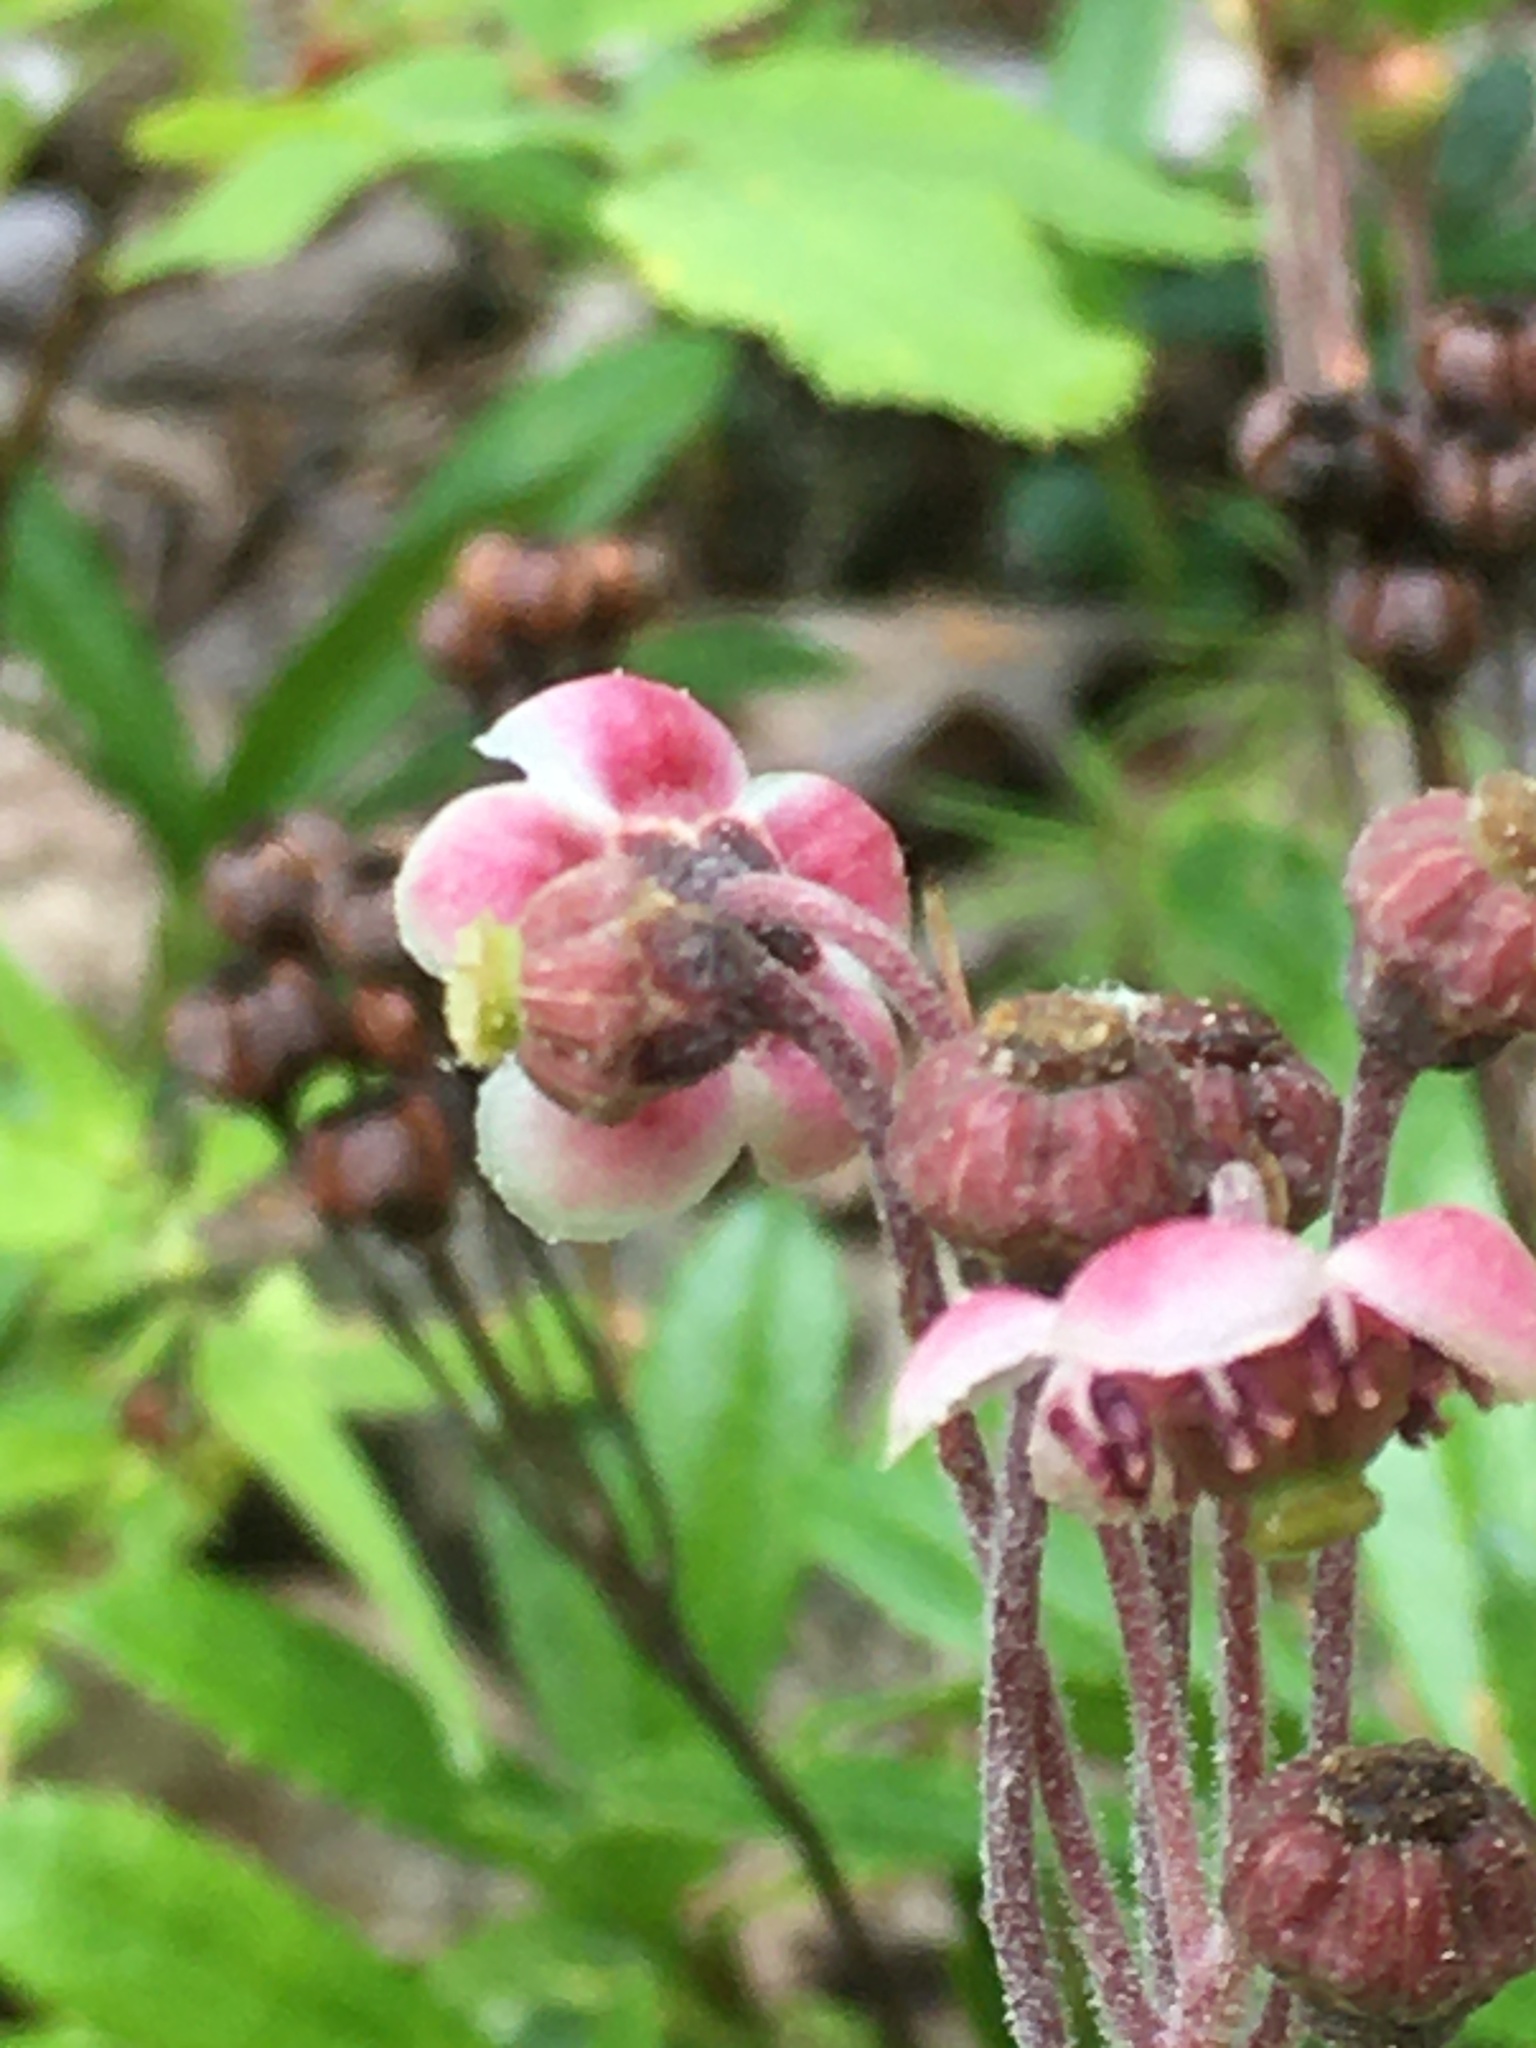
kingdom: Plantae
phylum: Tracheophyta
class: Magnoliopsida
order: Ericales
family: Ericaceae
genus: Chimaphila
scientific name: Chimaphila umbellata
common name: Pipsissewa
